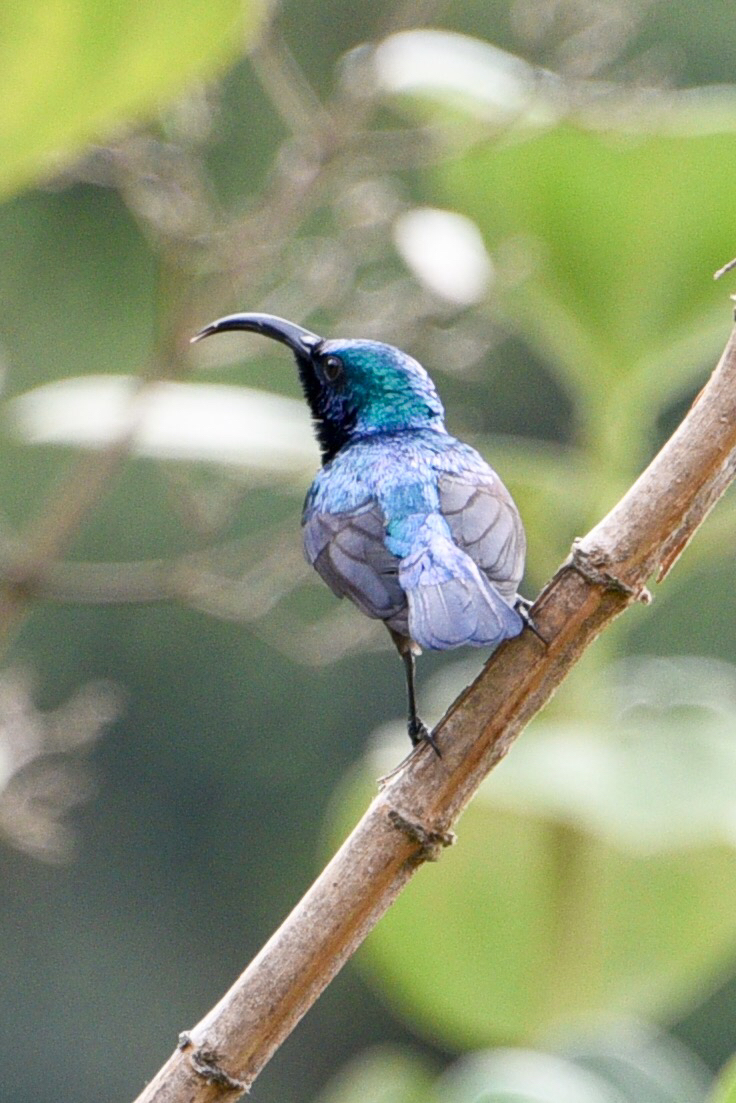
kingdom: Animalia
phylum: Chordata
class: Aves
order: Passeriformes
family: Nectariniidae
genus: Cinnyris
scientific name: Cinnyris lotenius
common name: Loten's sunbird
